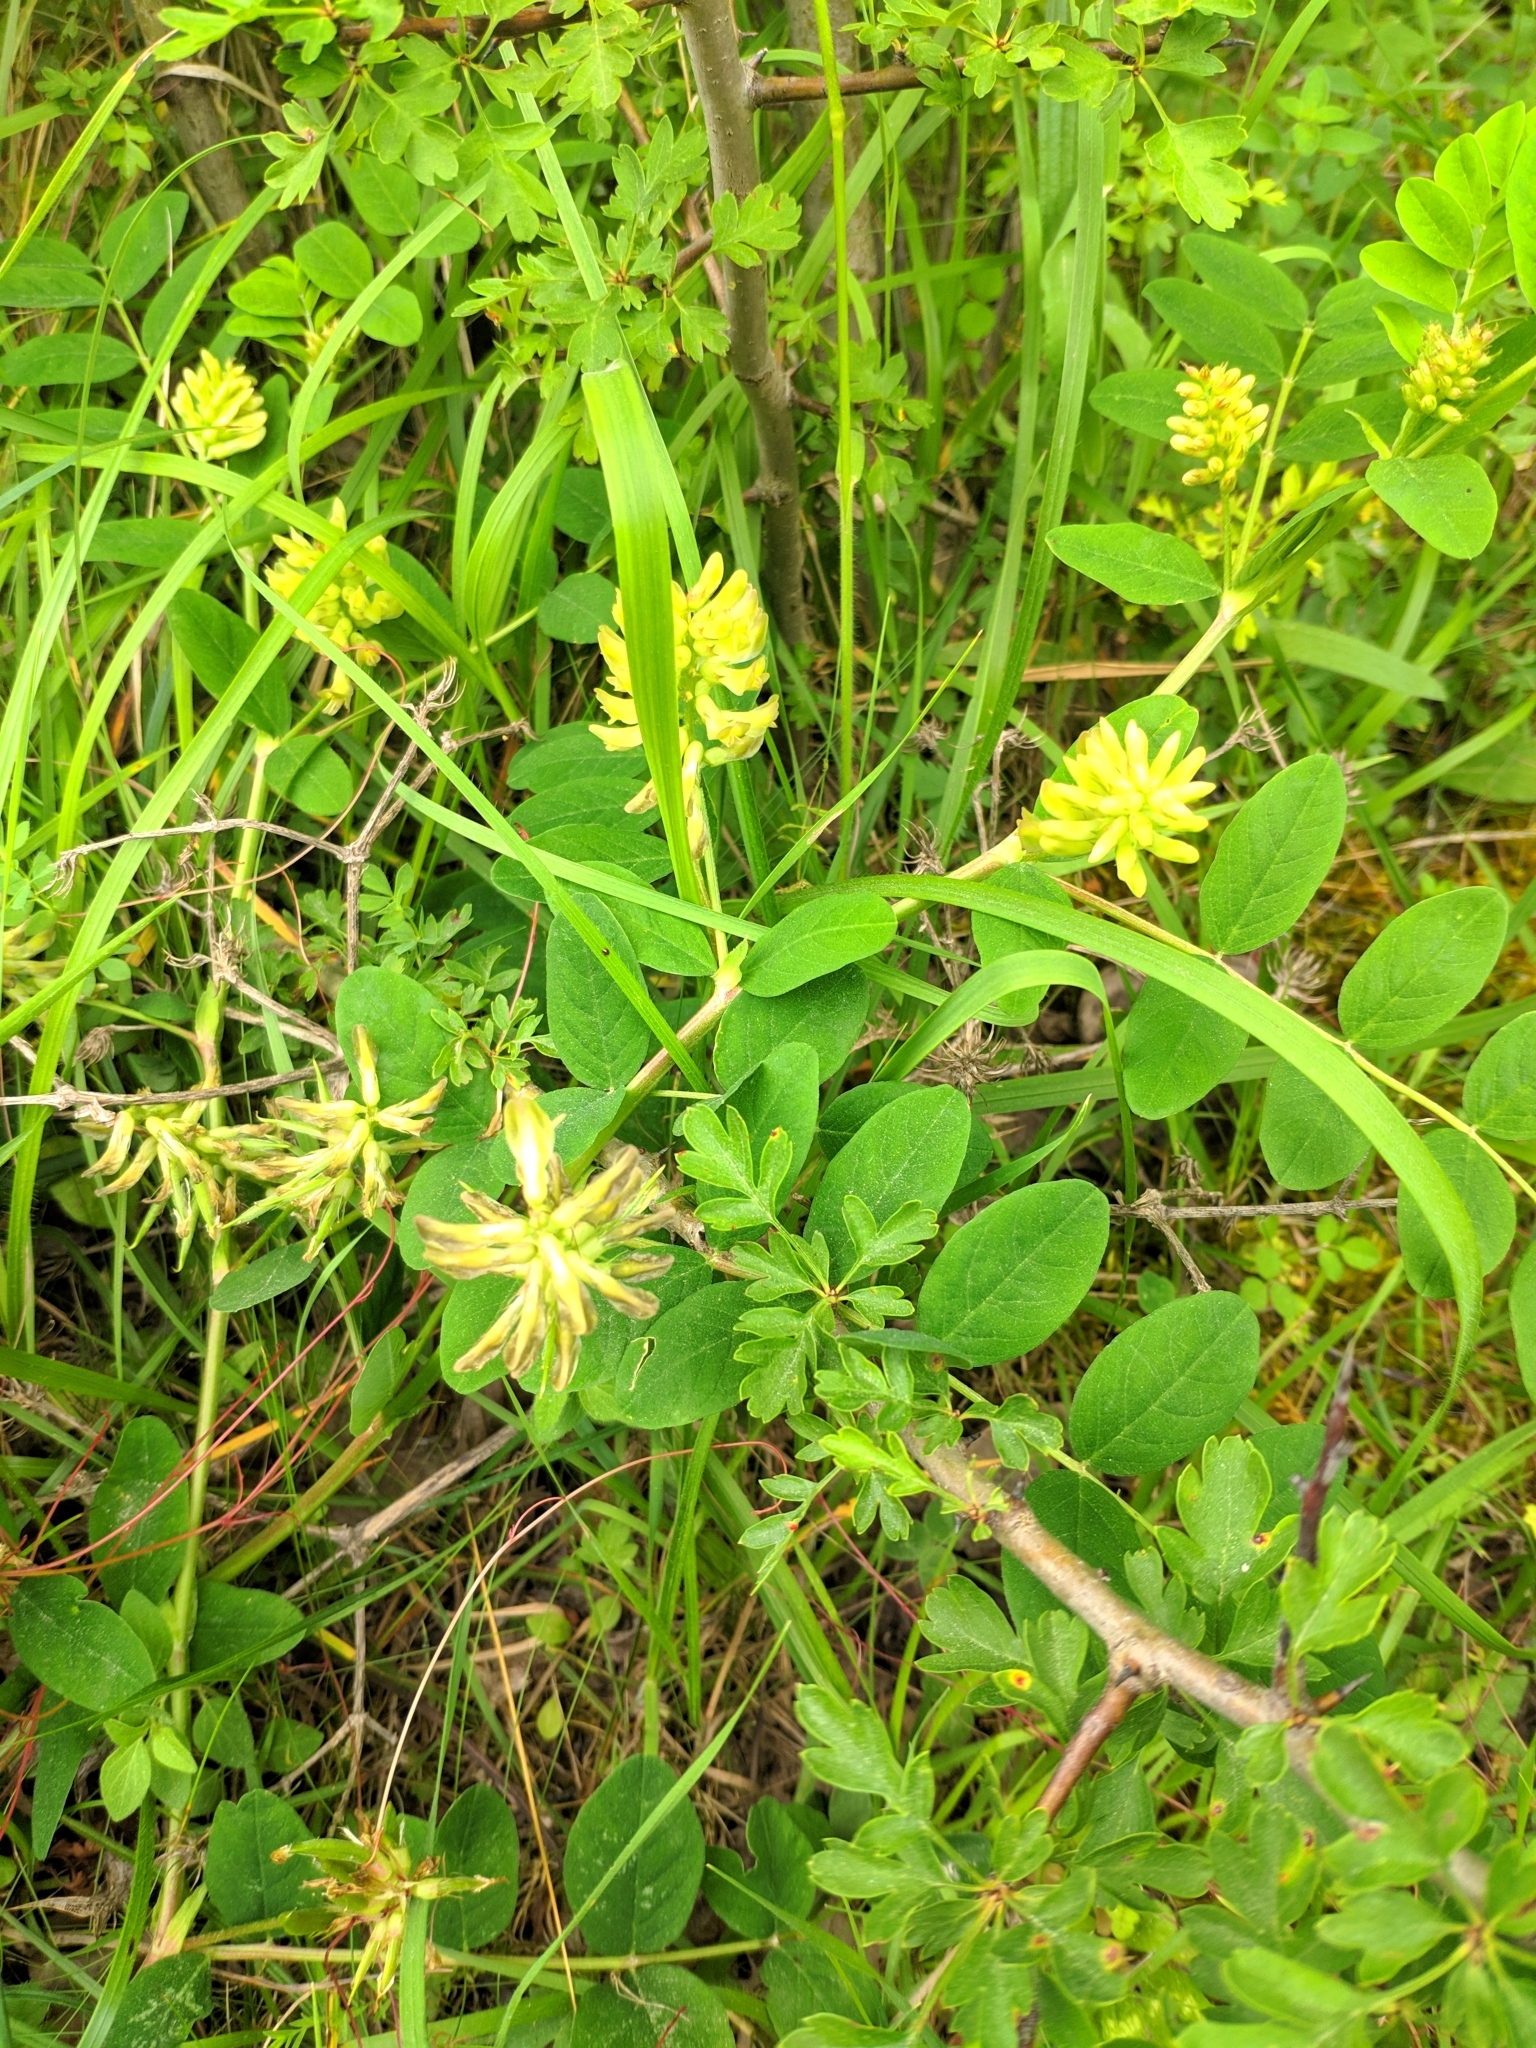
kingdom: Plantae
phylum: Tracheophyta
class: Magnoliopsida
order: Fabales
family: Fabaceae
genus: Astragalus
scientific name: Astragalus glycyphyllos
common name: Wild liquorice
